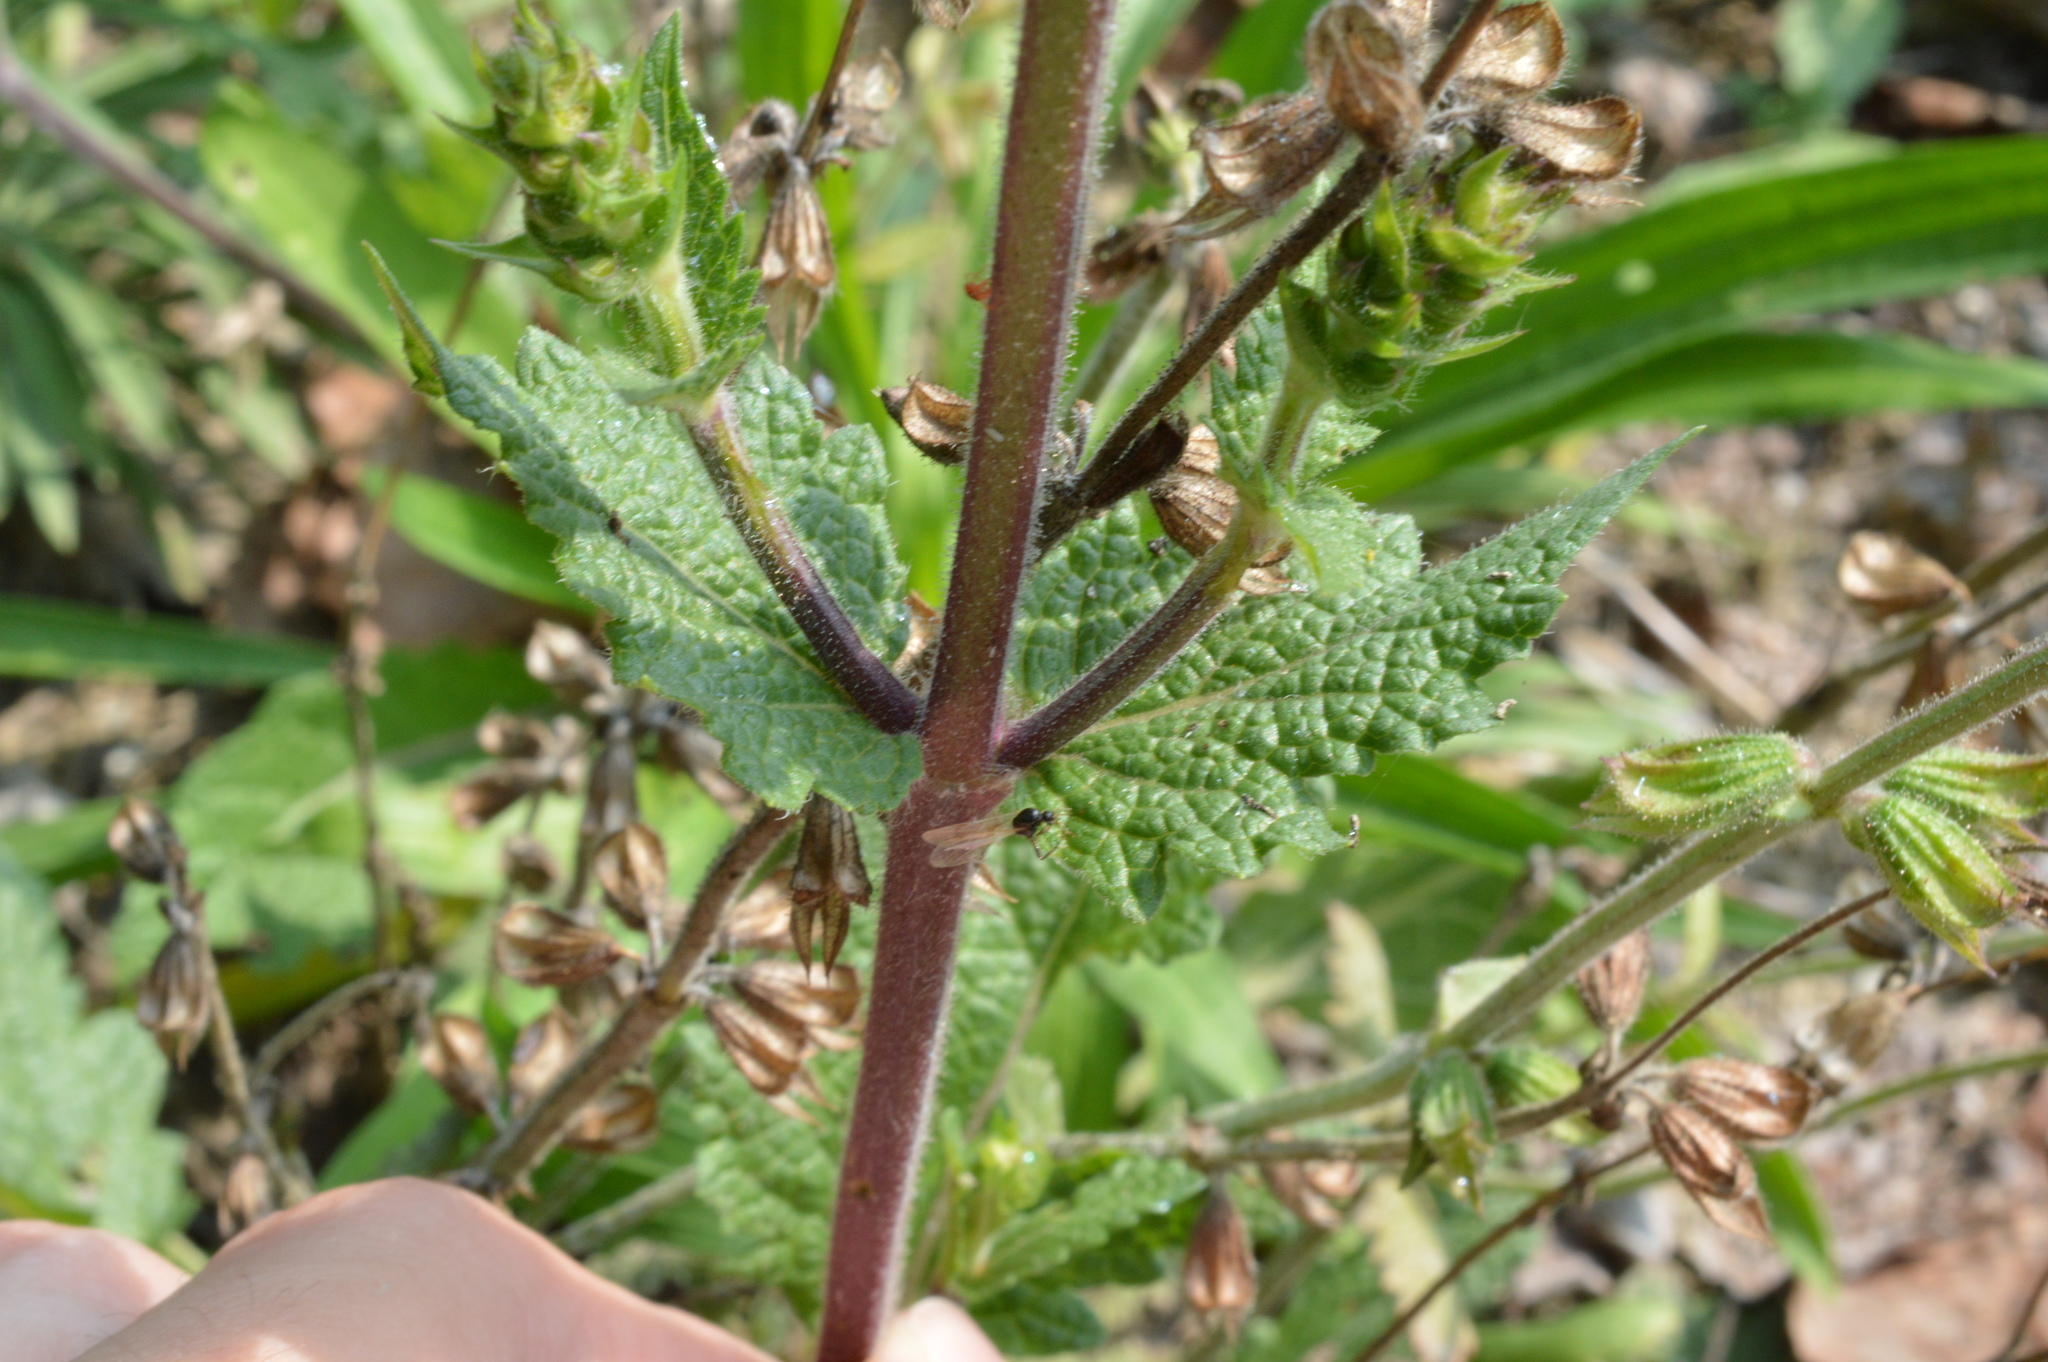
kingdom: Plantae
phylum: Tracheophyta
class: Magnoliopsida
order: Lamiales
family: Lamiaceae
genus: Salvia
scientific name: Salvia verbenaca
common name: Wild clary
